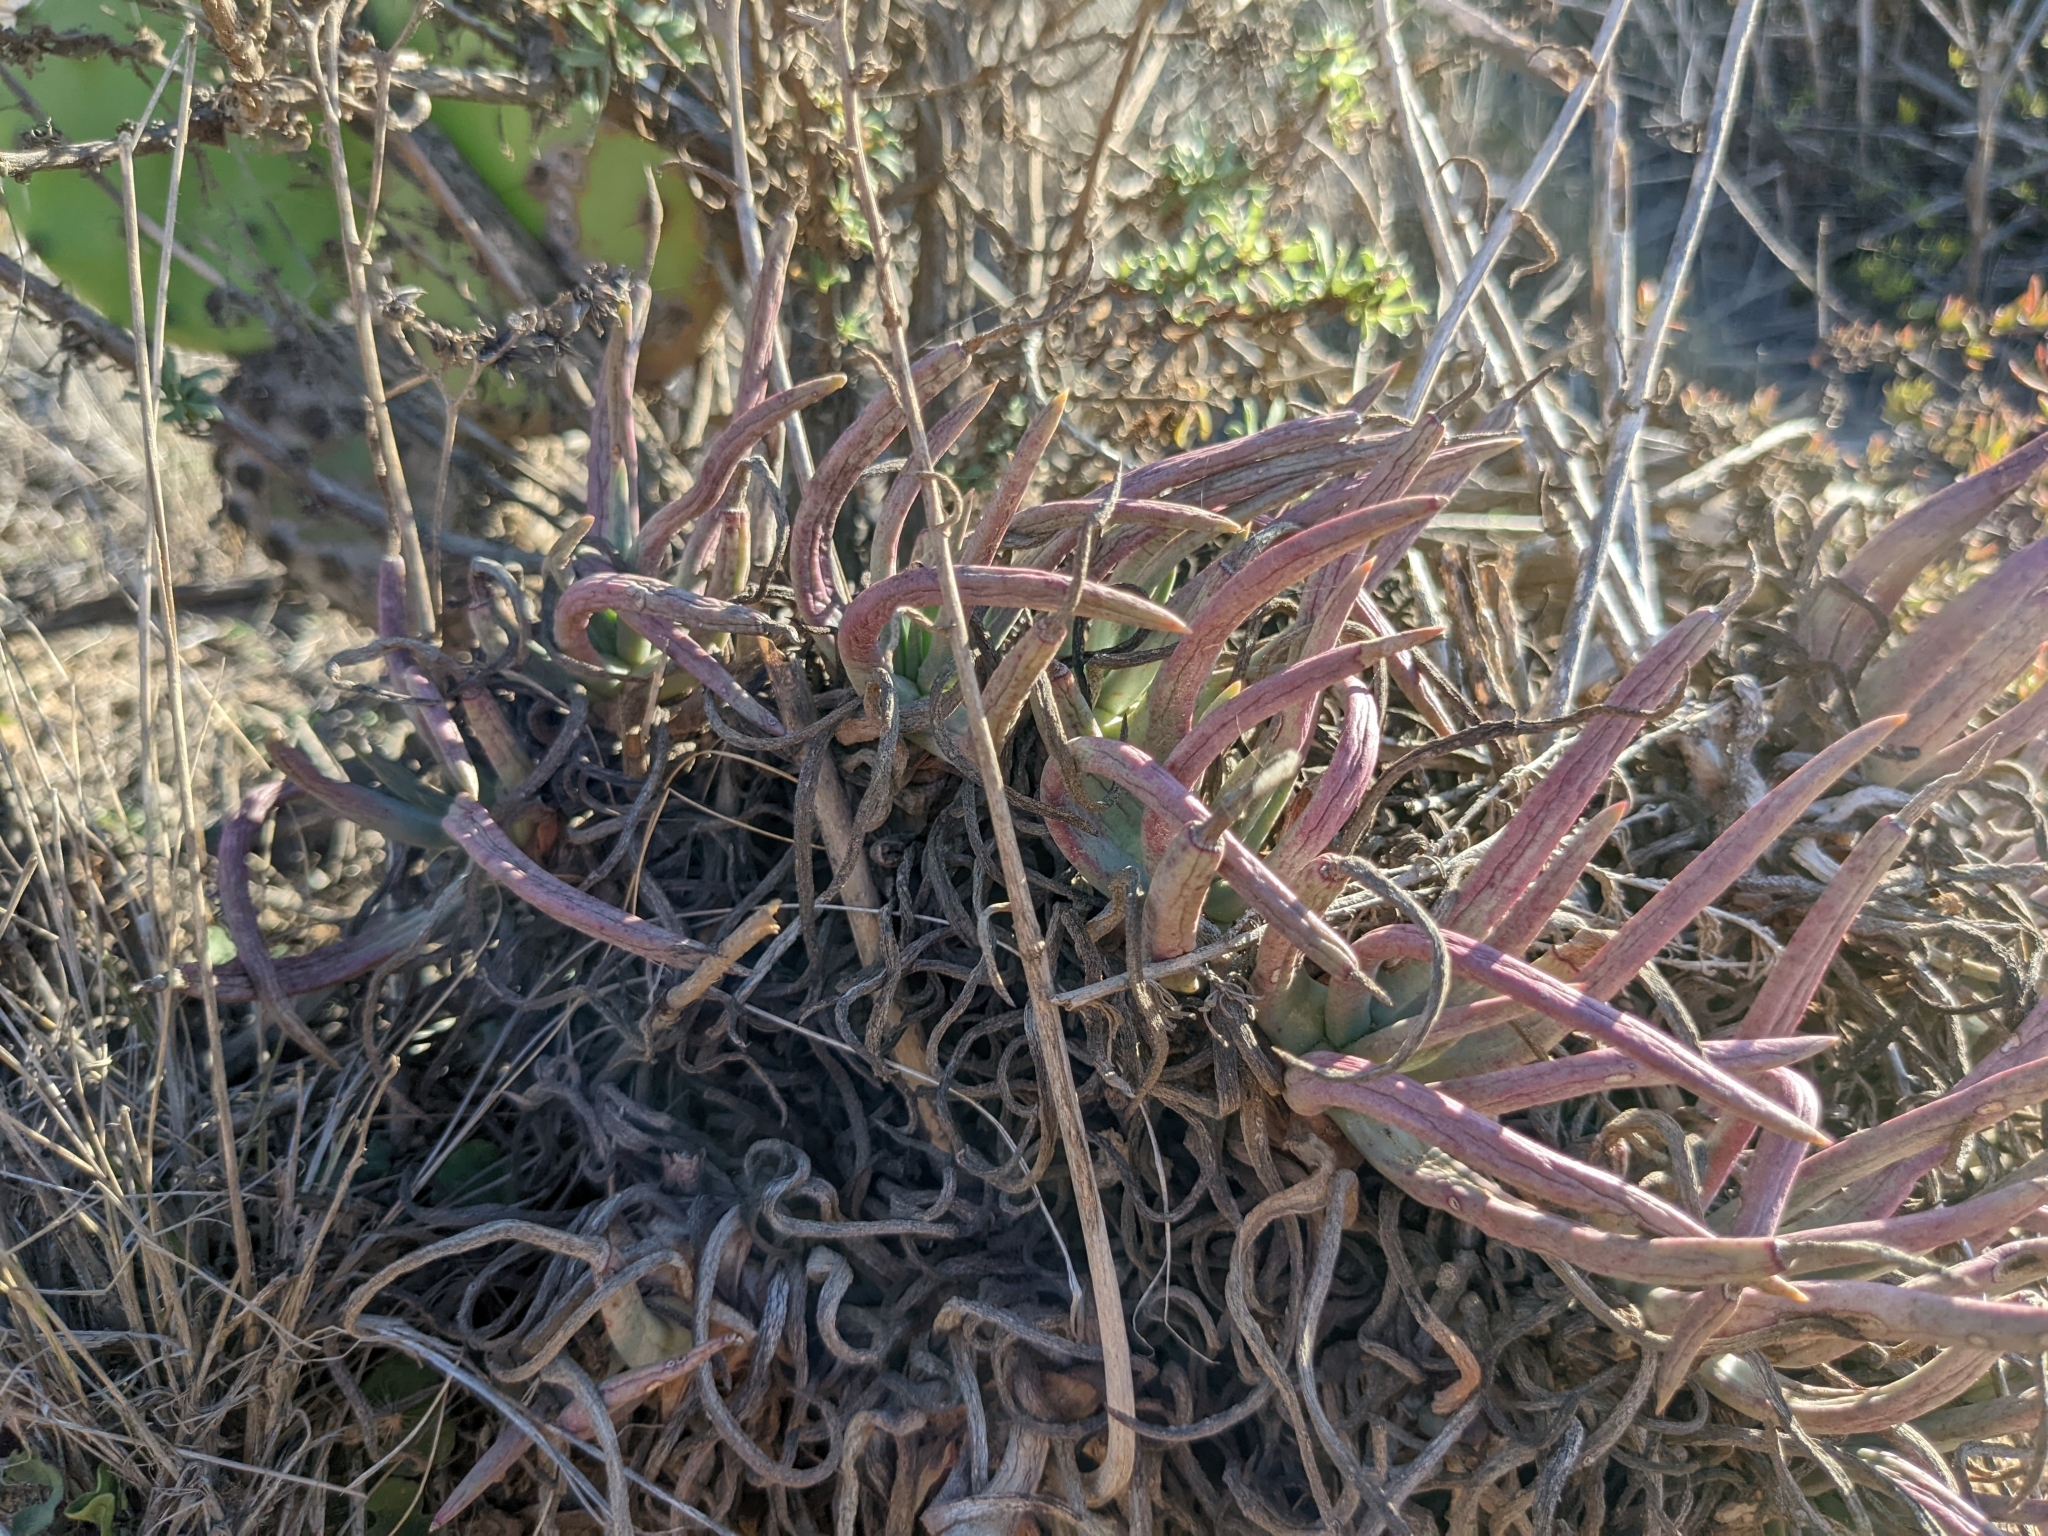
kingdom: Plantae
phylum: Tracheophyta
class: Magnoliopsida
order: Saxifragales
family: Crassulaceae
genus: Dudleya
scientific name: Dudleya edulis
